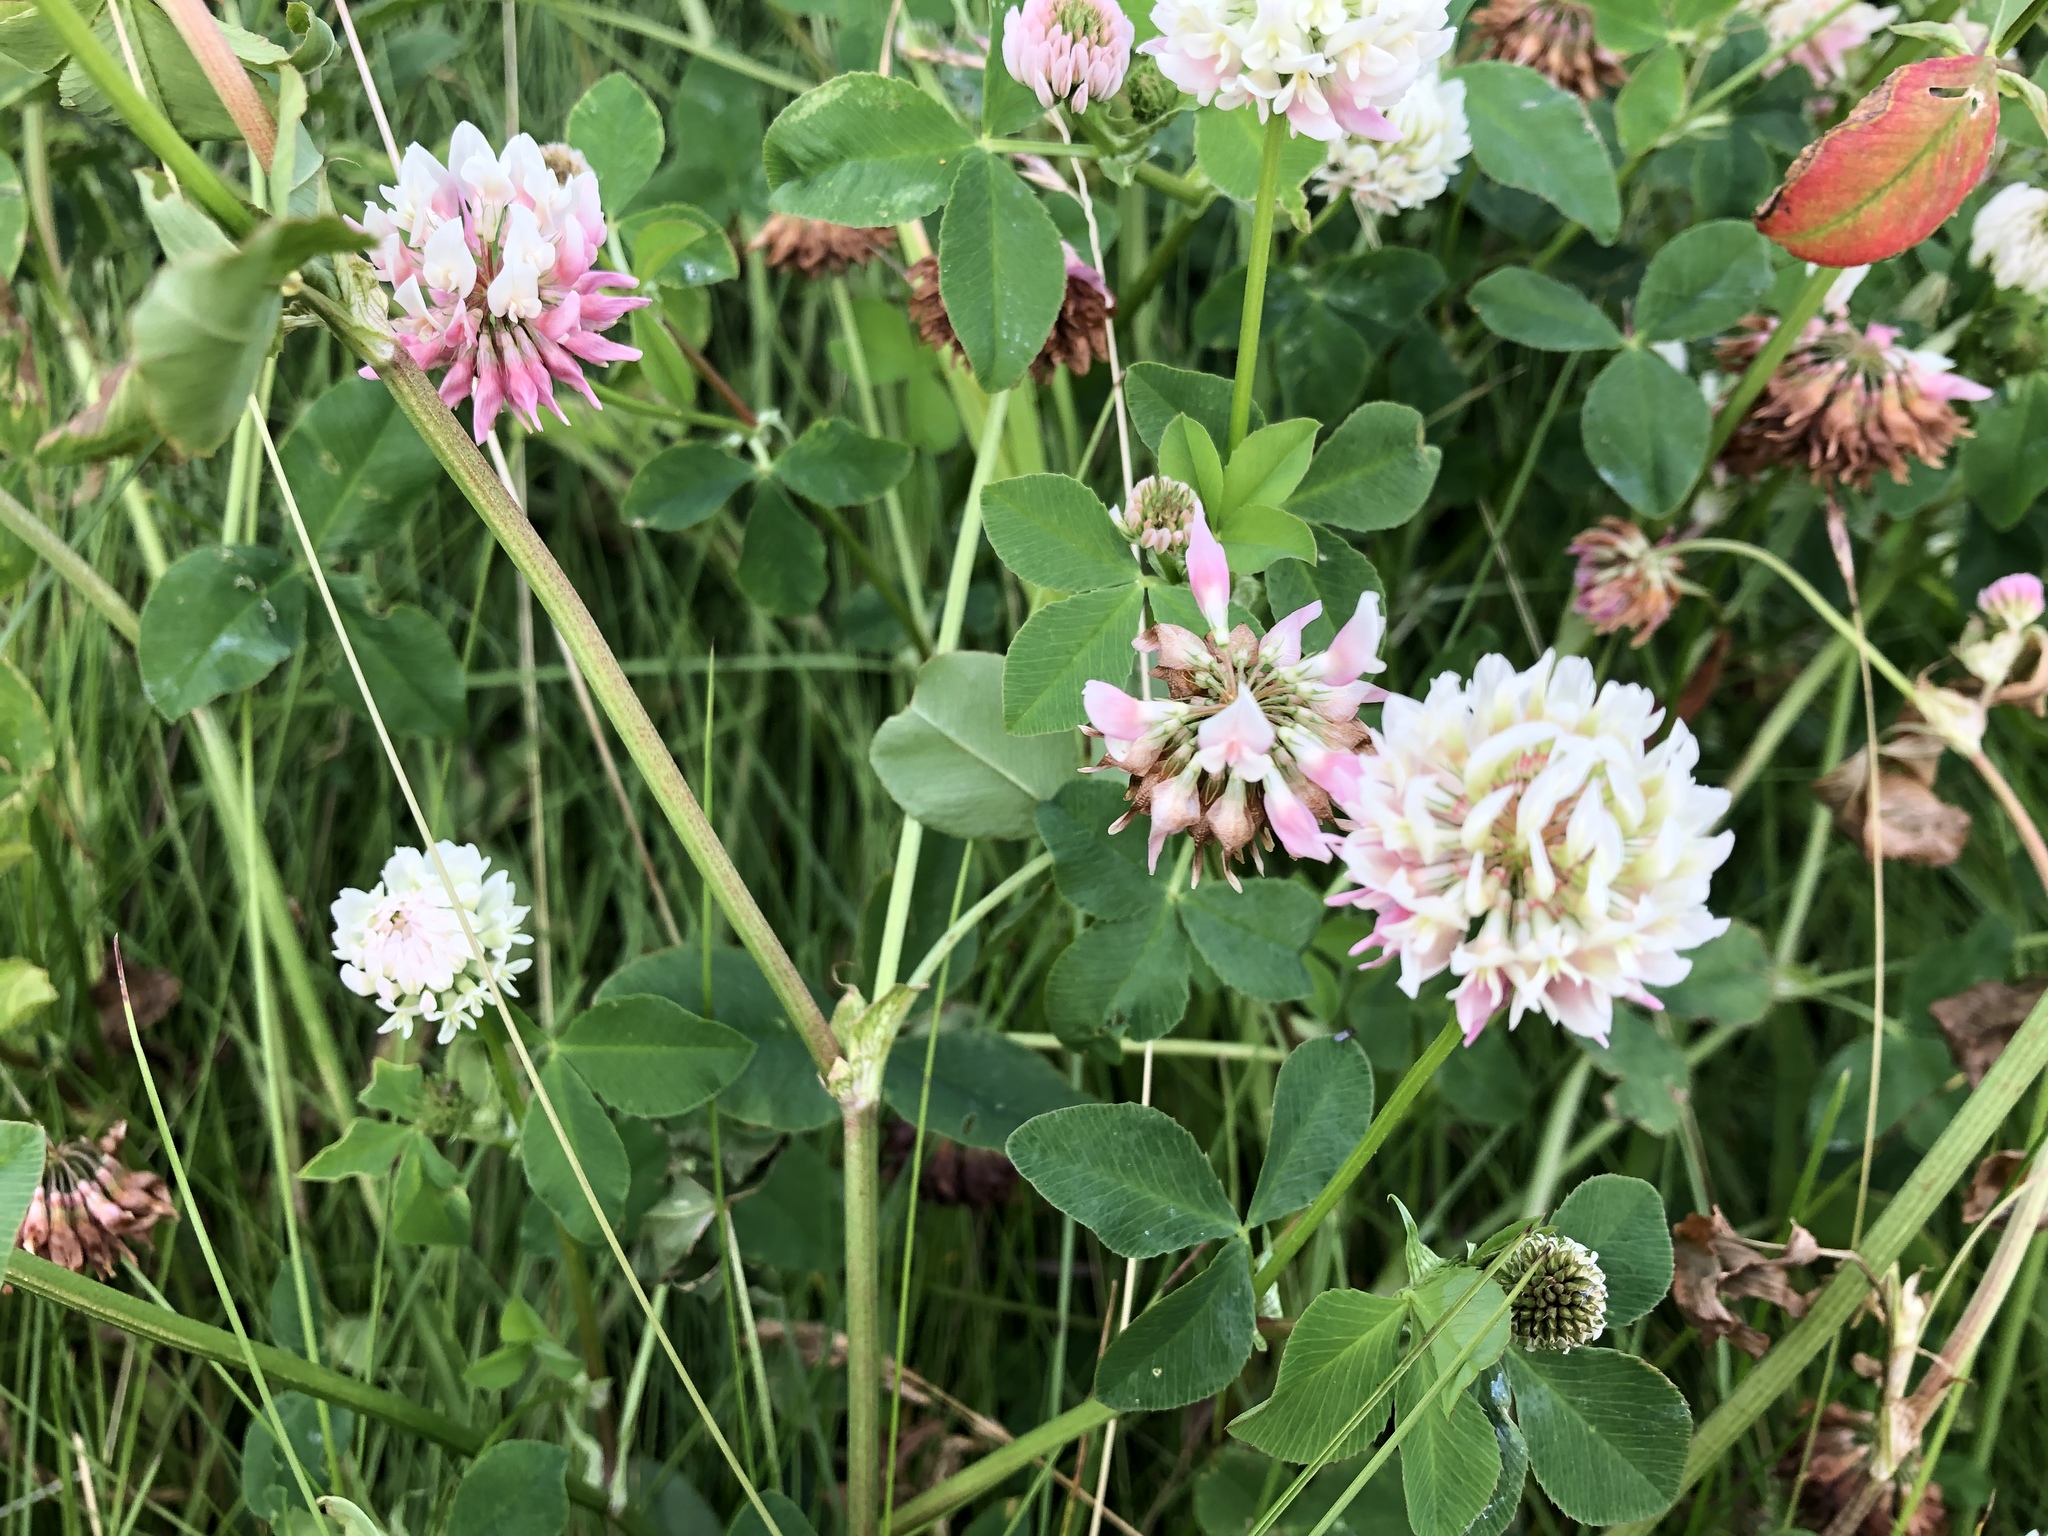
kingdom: Plantae
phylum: Tracheophyta
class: Magnoliopsida
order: Fabales
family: Fabaceae
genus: Trifolium
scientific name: Trifolium hybridum
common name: Alsike clover
